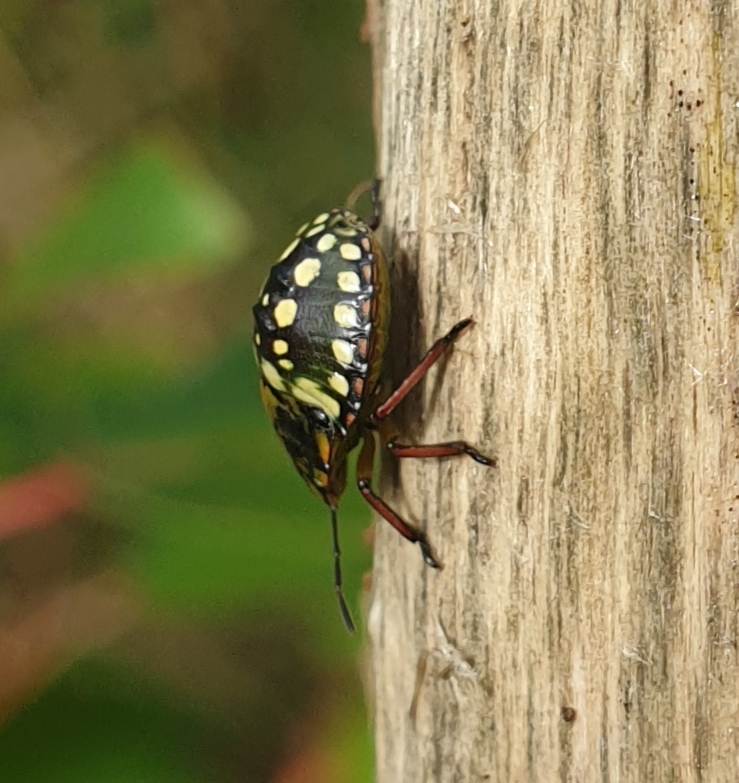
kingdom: Animalia
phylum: Arthropoda
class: Insecta
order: Hemiptera
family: Pentatomidae
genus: Nezara
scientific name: Nezara viridula
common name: Southern green stink bug
